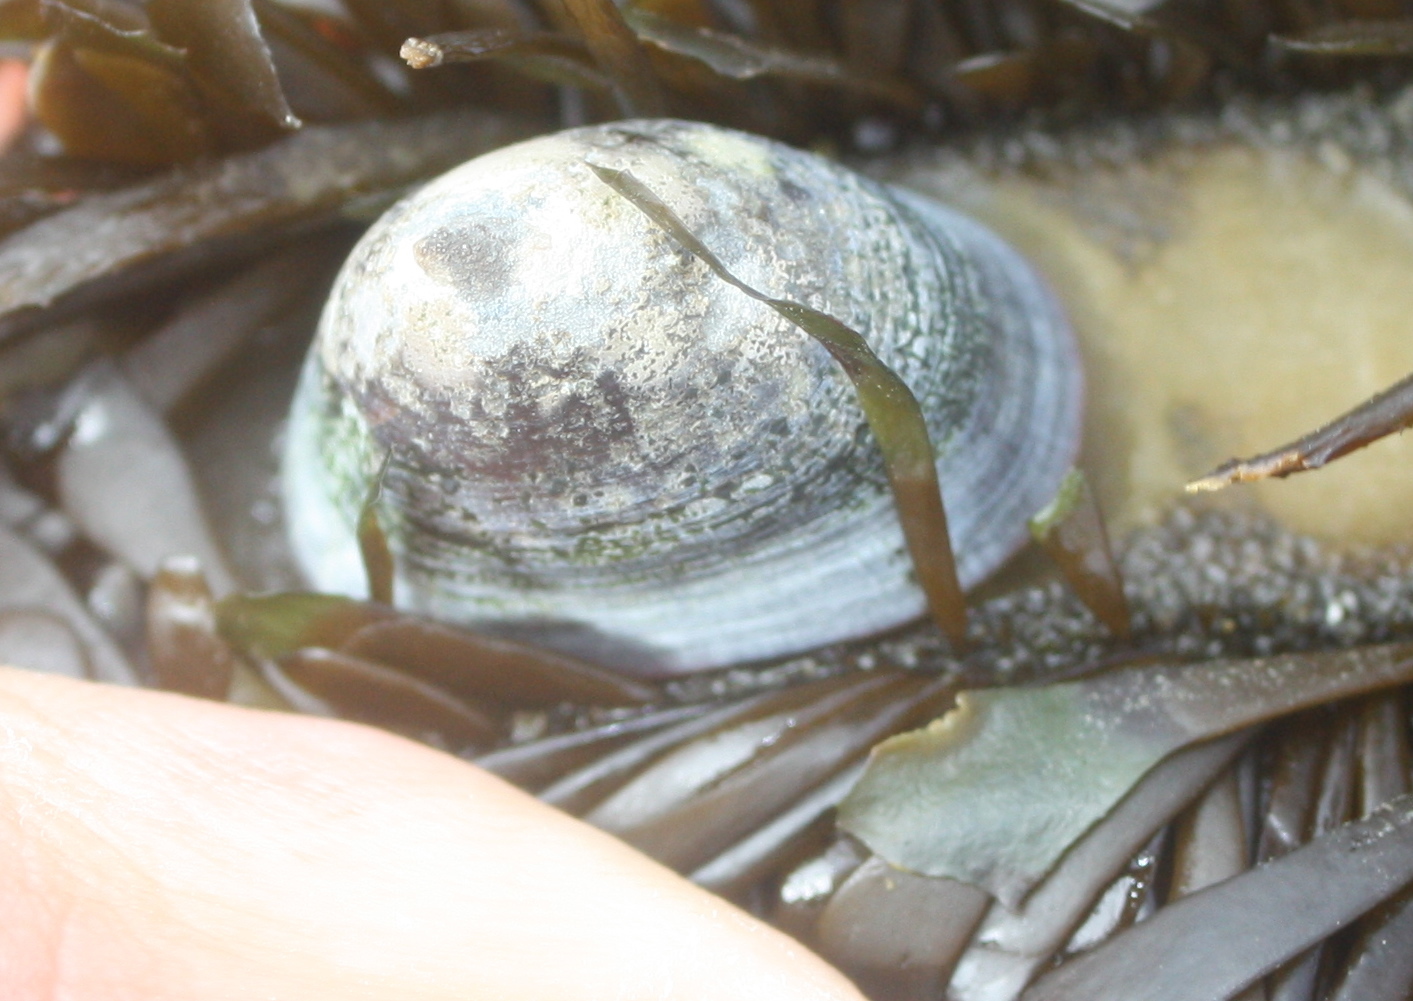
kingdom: Animalia
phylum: Mollusca
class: Gastropoda
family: Lottiidae
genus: Lottia
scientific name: Lottia instabilis
